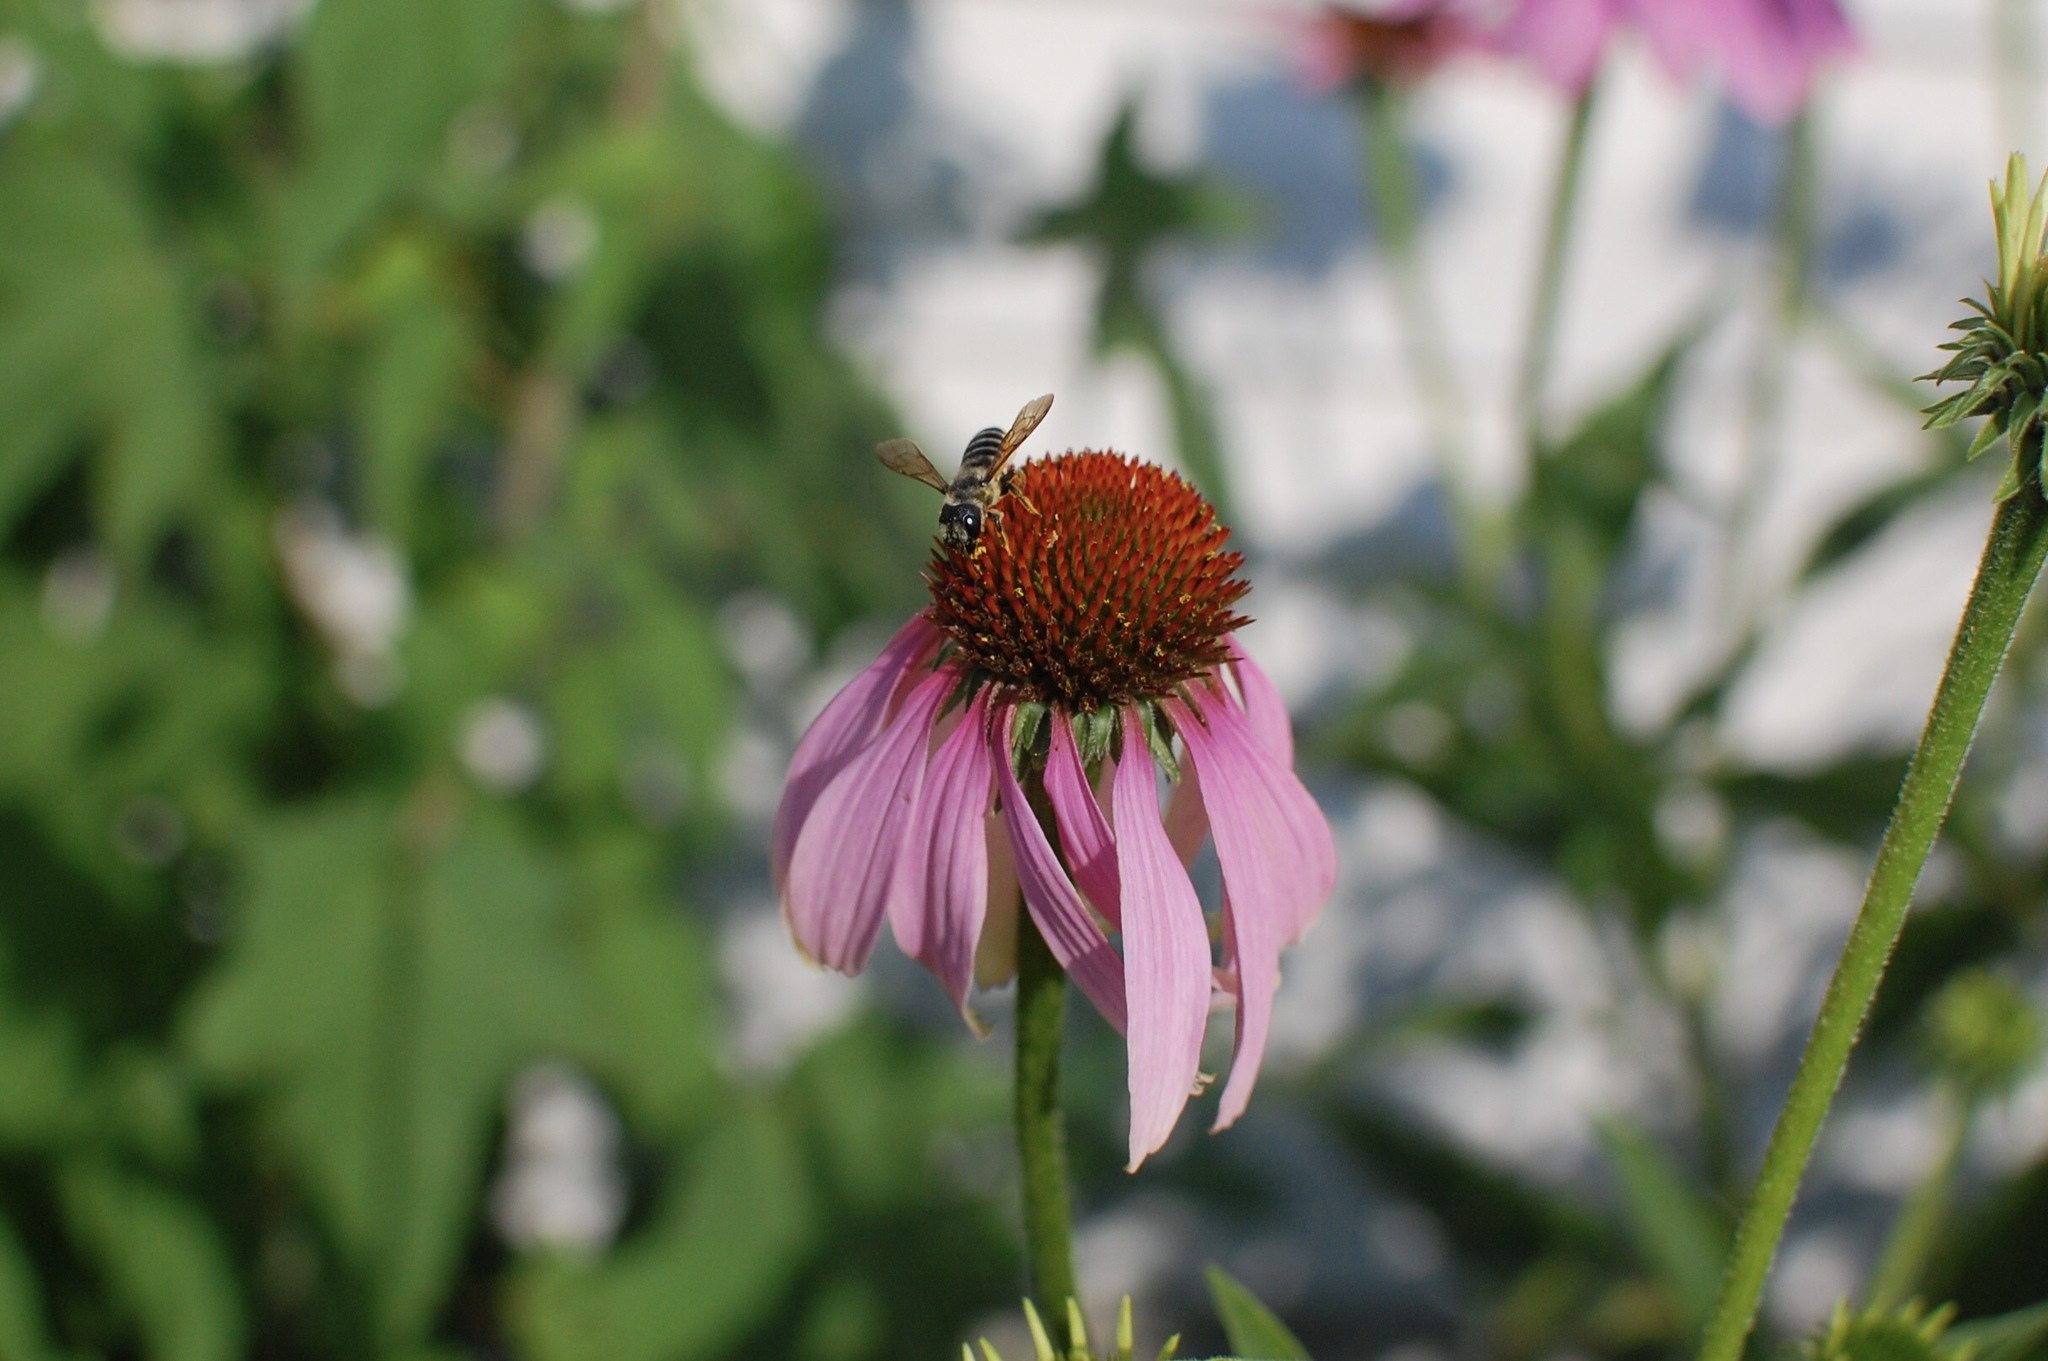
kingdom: Animalia
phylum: Arthropoda
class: Insecta
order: Hymenoptera
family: Megachilidae
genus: Megachile
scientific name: Megachile pugnata
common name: Pugnacious leafcutter bee
